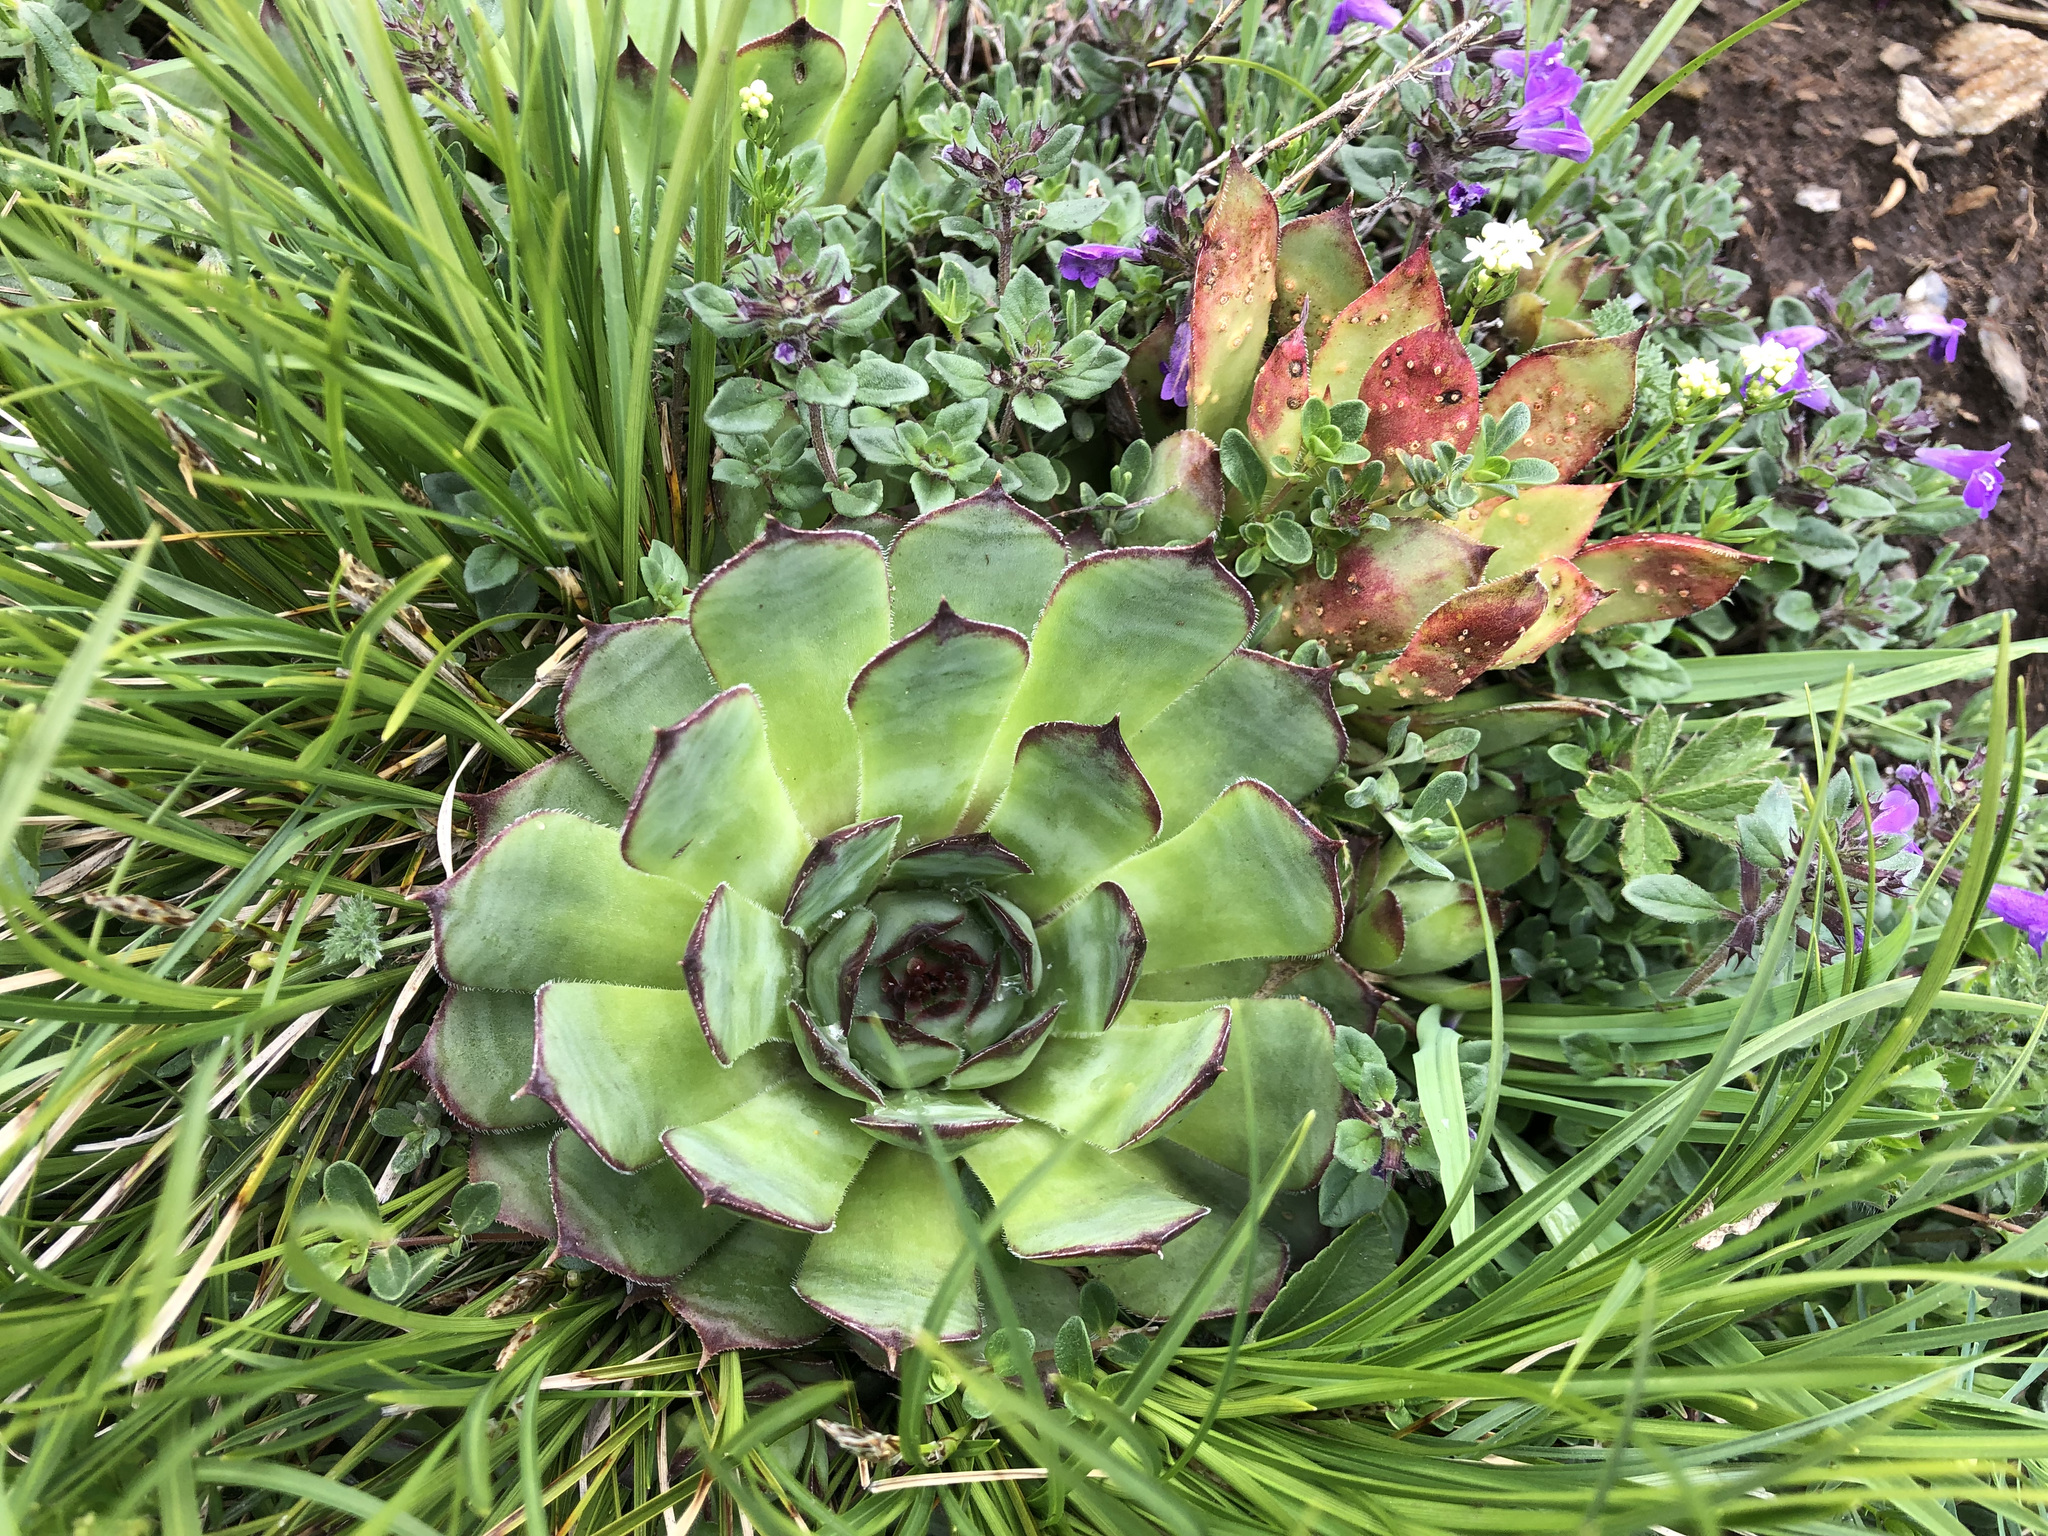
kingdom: Plantae
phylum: Tracheophyta
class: Magnoliopsida
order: Saxifragales
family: Crassulaceae
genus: Sempervivum
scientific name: Sempervivum tectorum
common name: House-leek
